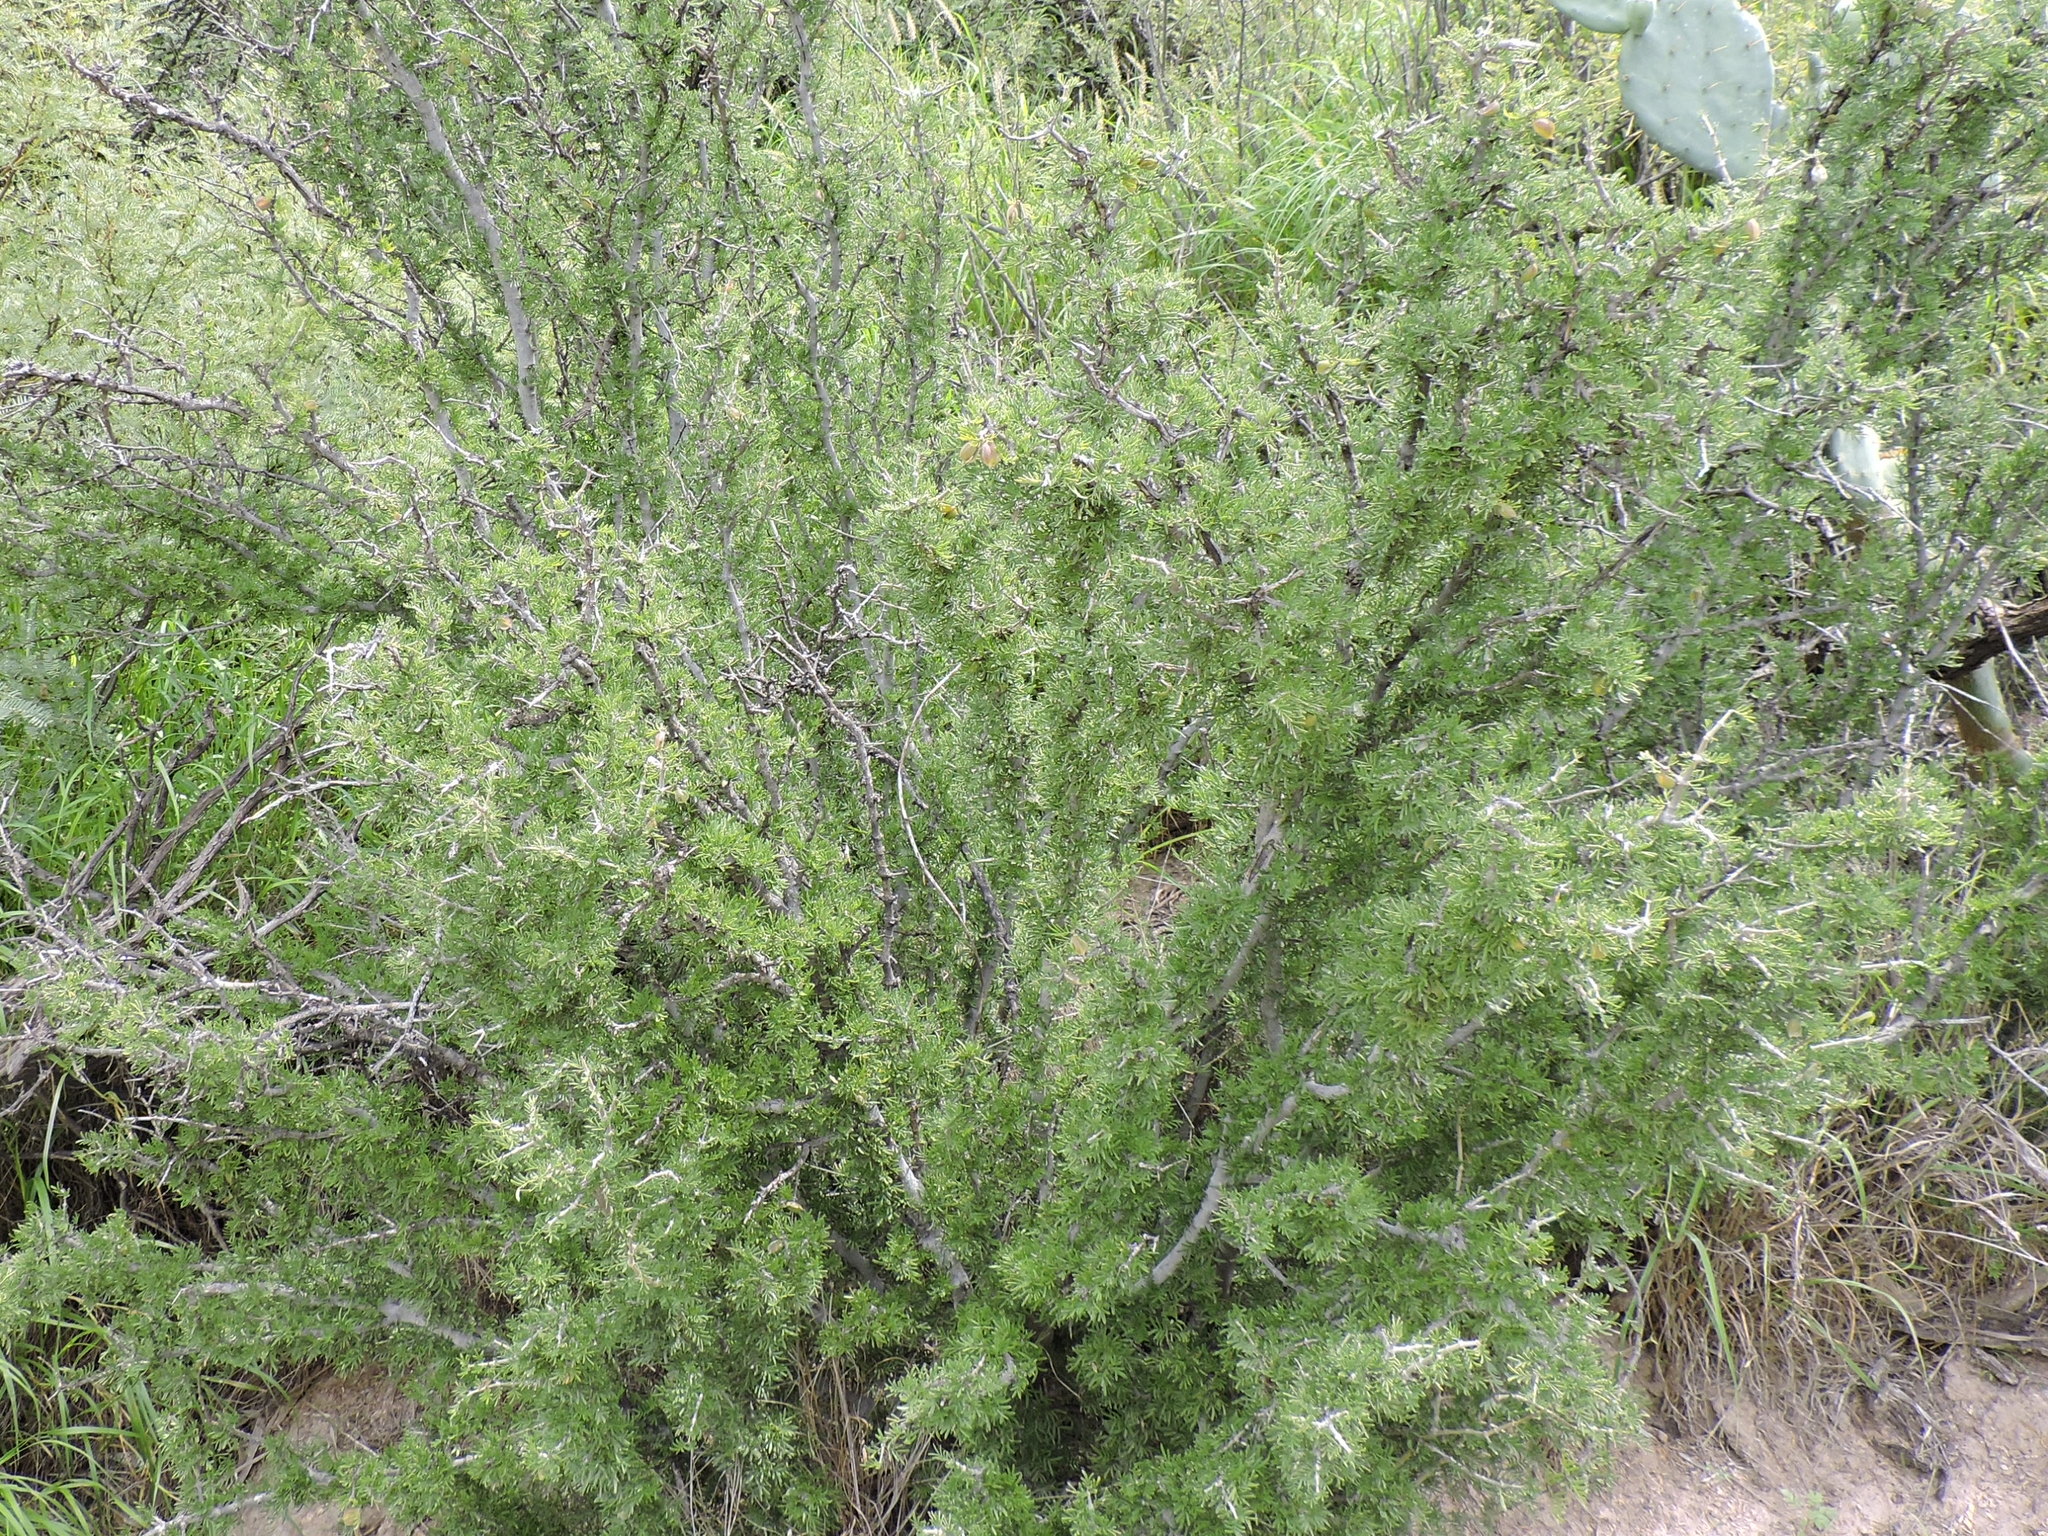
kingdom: Plantae
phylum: Tracheophyta
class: Magnoliopsida
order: Zygophyllales
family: Zygophyllaceae
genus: Porlieria
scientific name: Porlieria angustifolia
